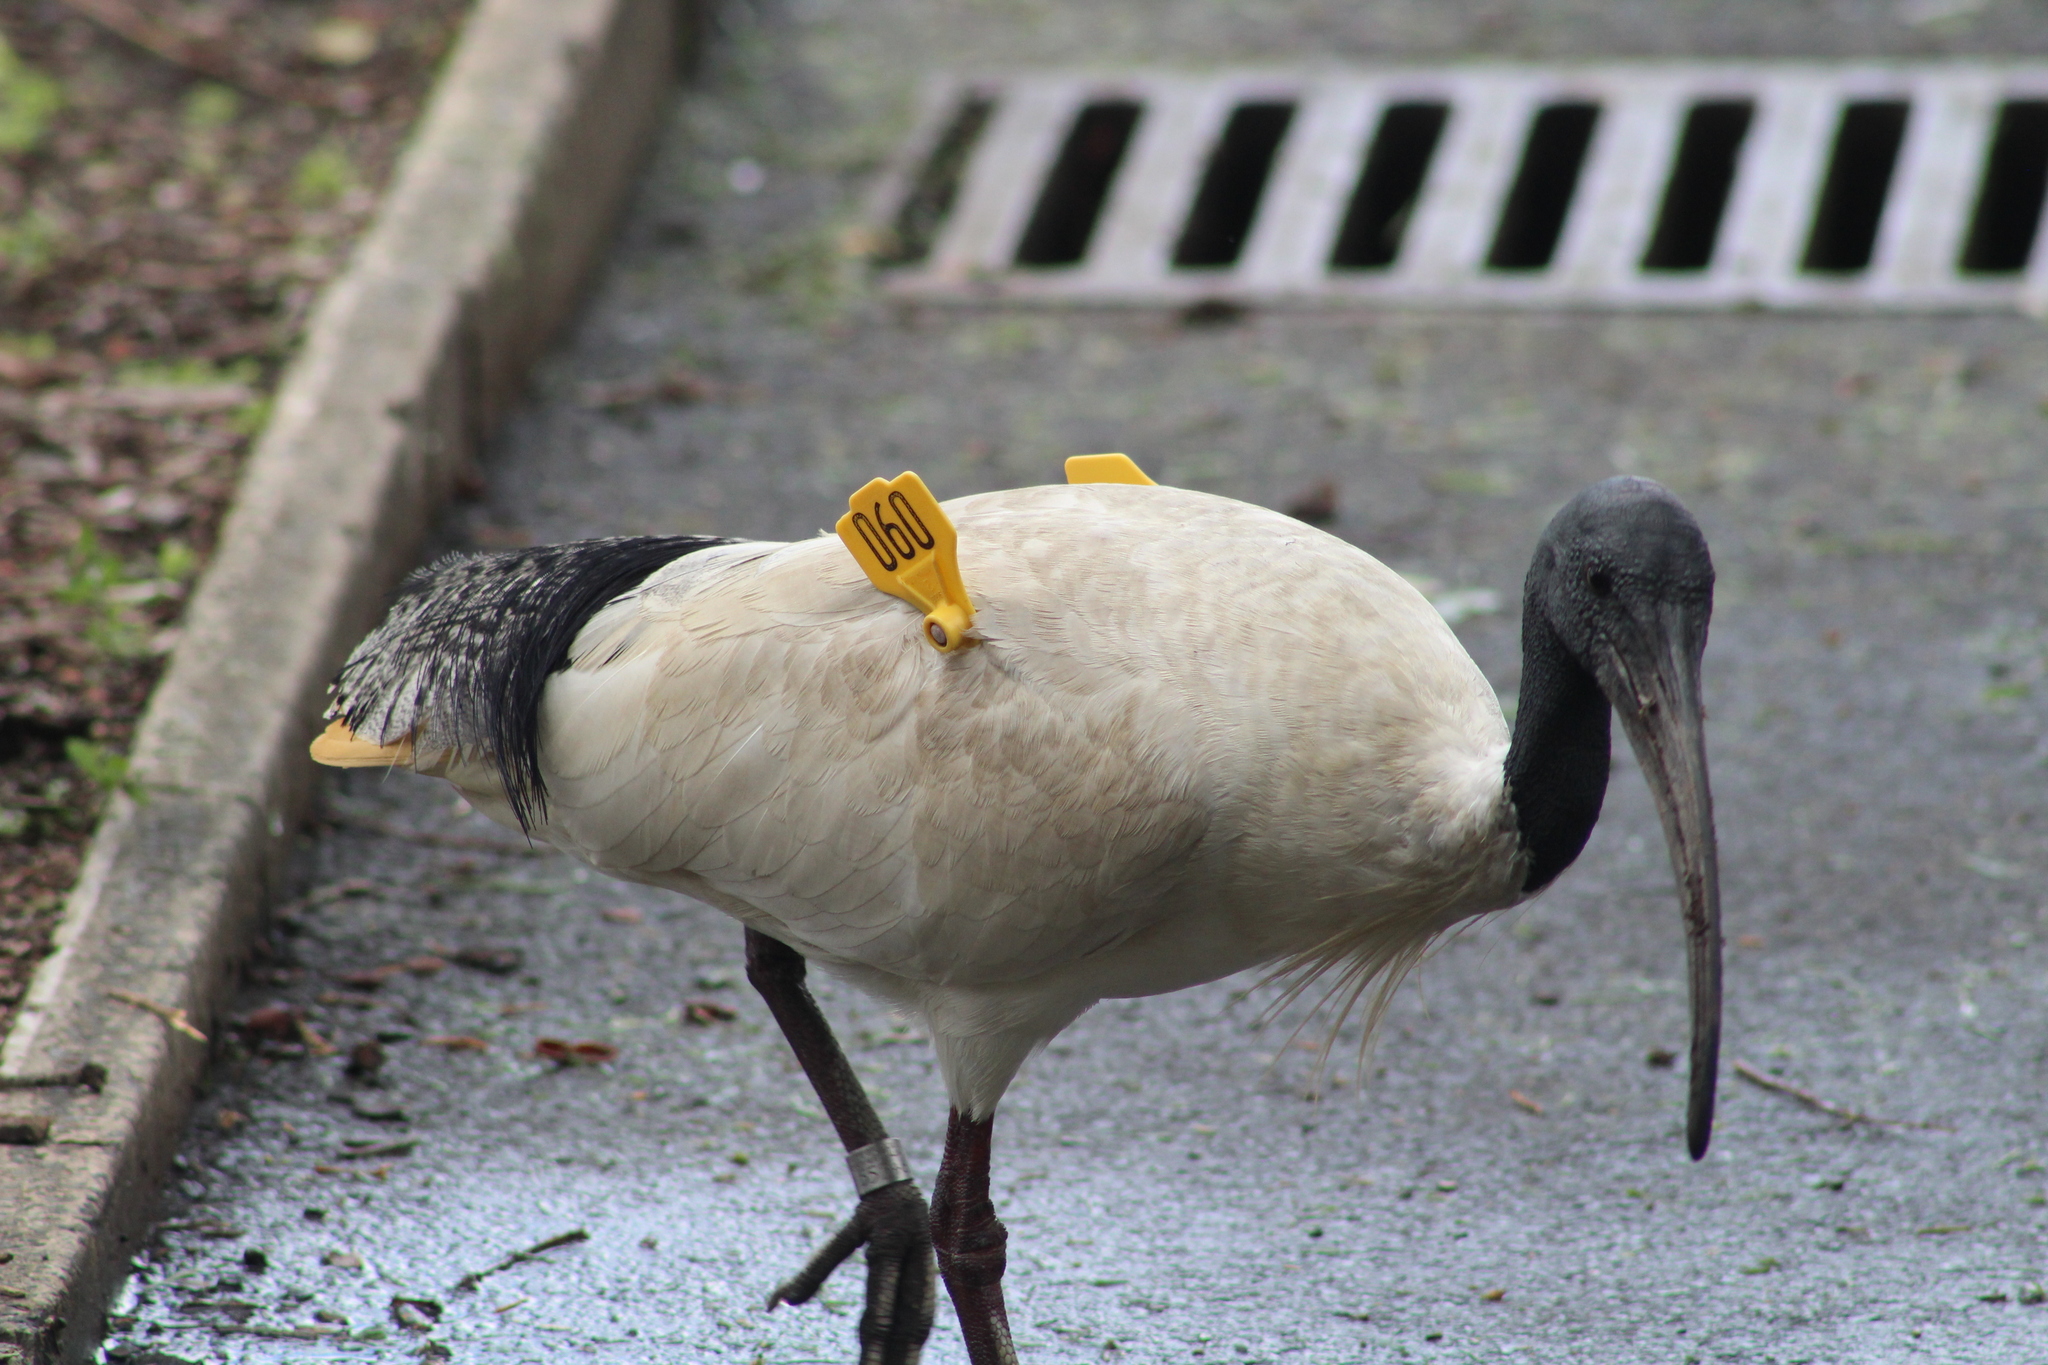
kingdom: Animalia
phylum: Chordata
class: Aves
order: Pelecaniformes
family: Threskiornithidae
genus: Threskiornis
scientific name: Threskiornis molucca
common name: Australian white ibis
